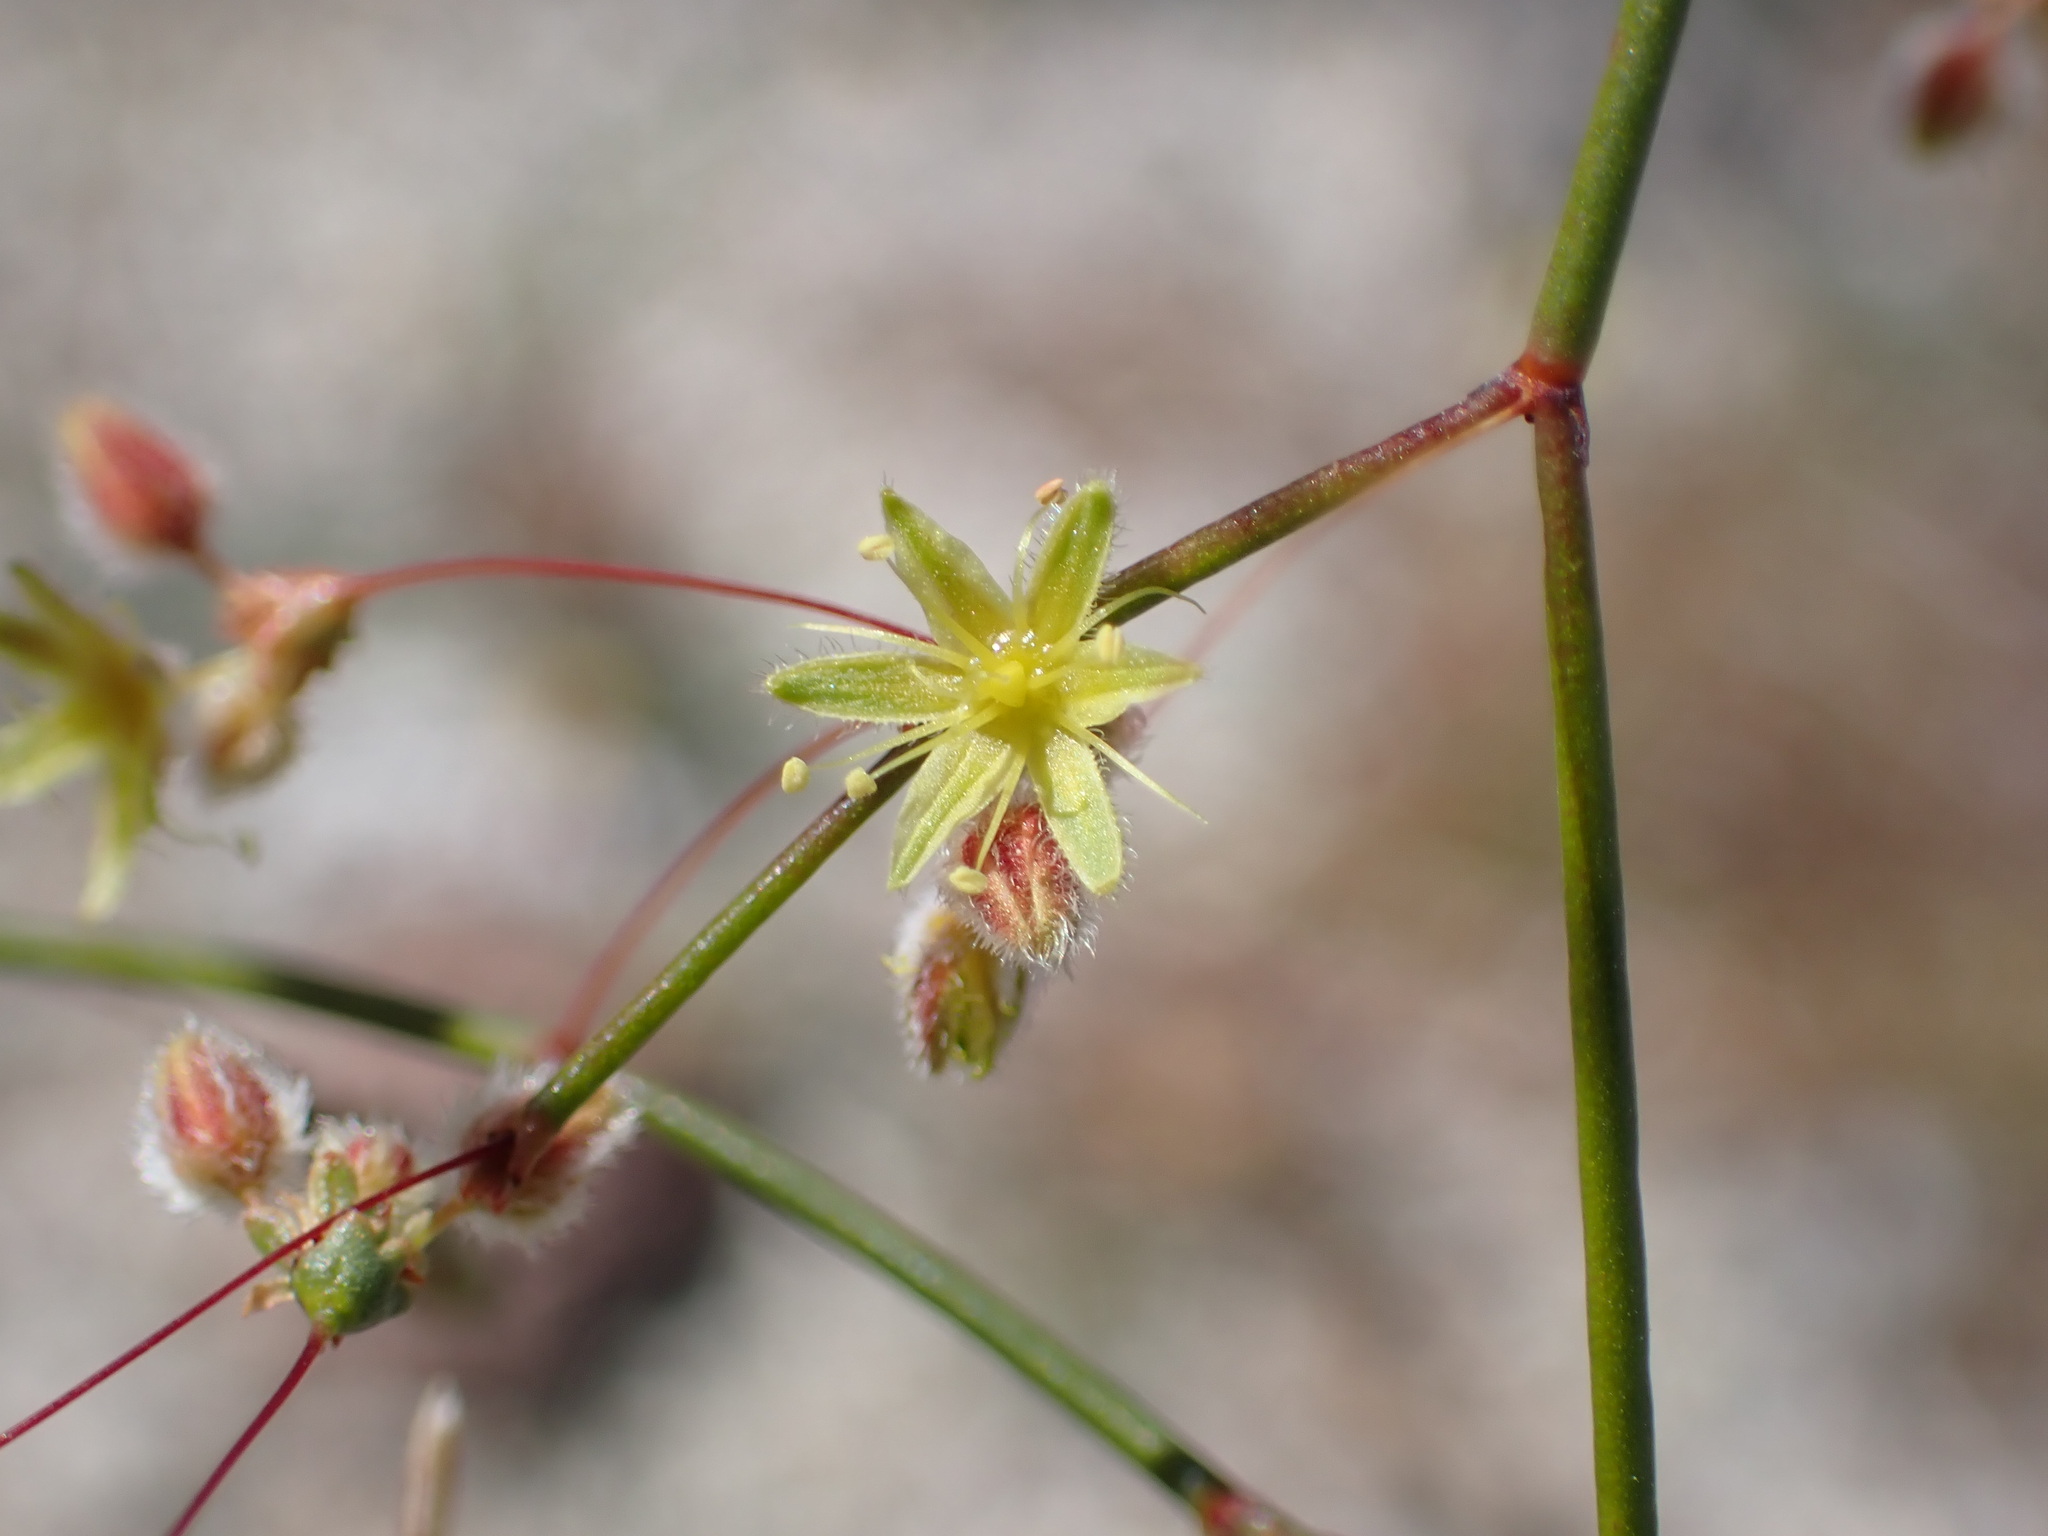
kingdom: Plantae
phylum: Tracheophyta
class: Magnoliopsida
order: Caryophyllales
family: Polygonaceae
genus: Eriogonum
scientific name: Eriogonum inflatum
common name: Desert trumpet
